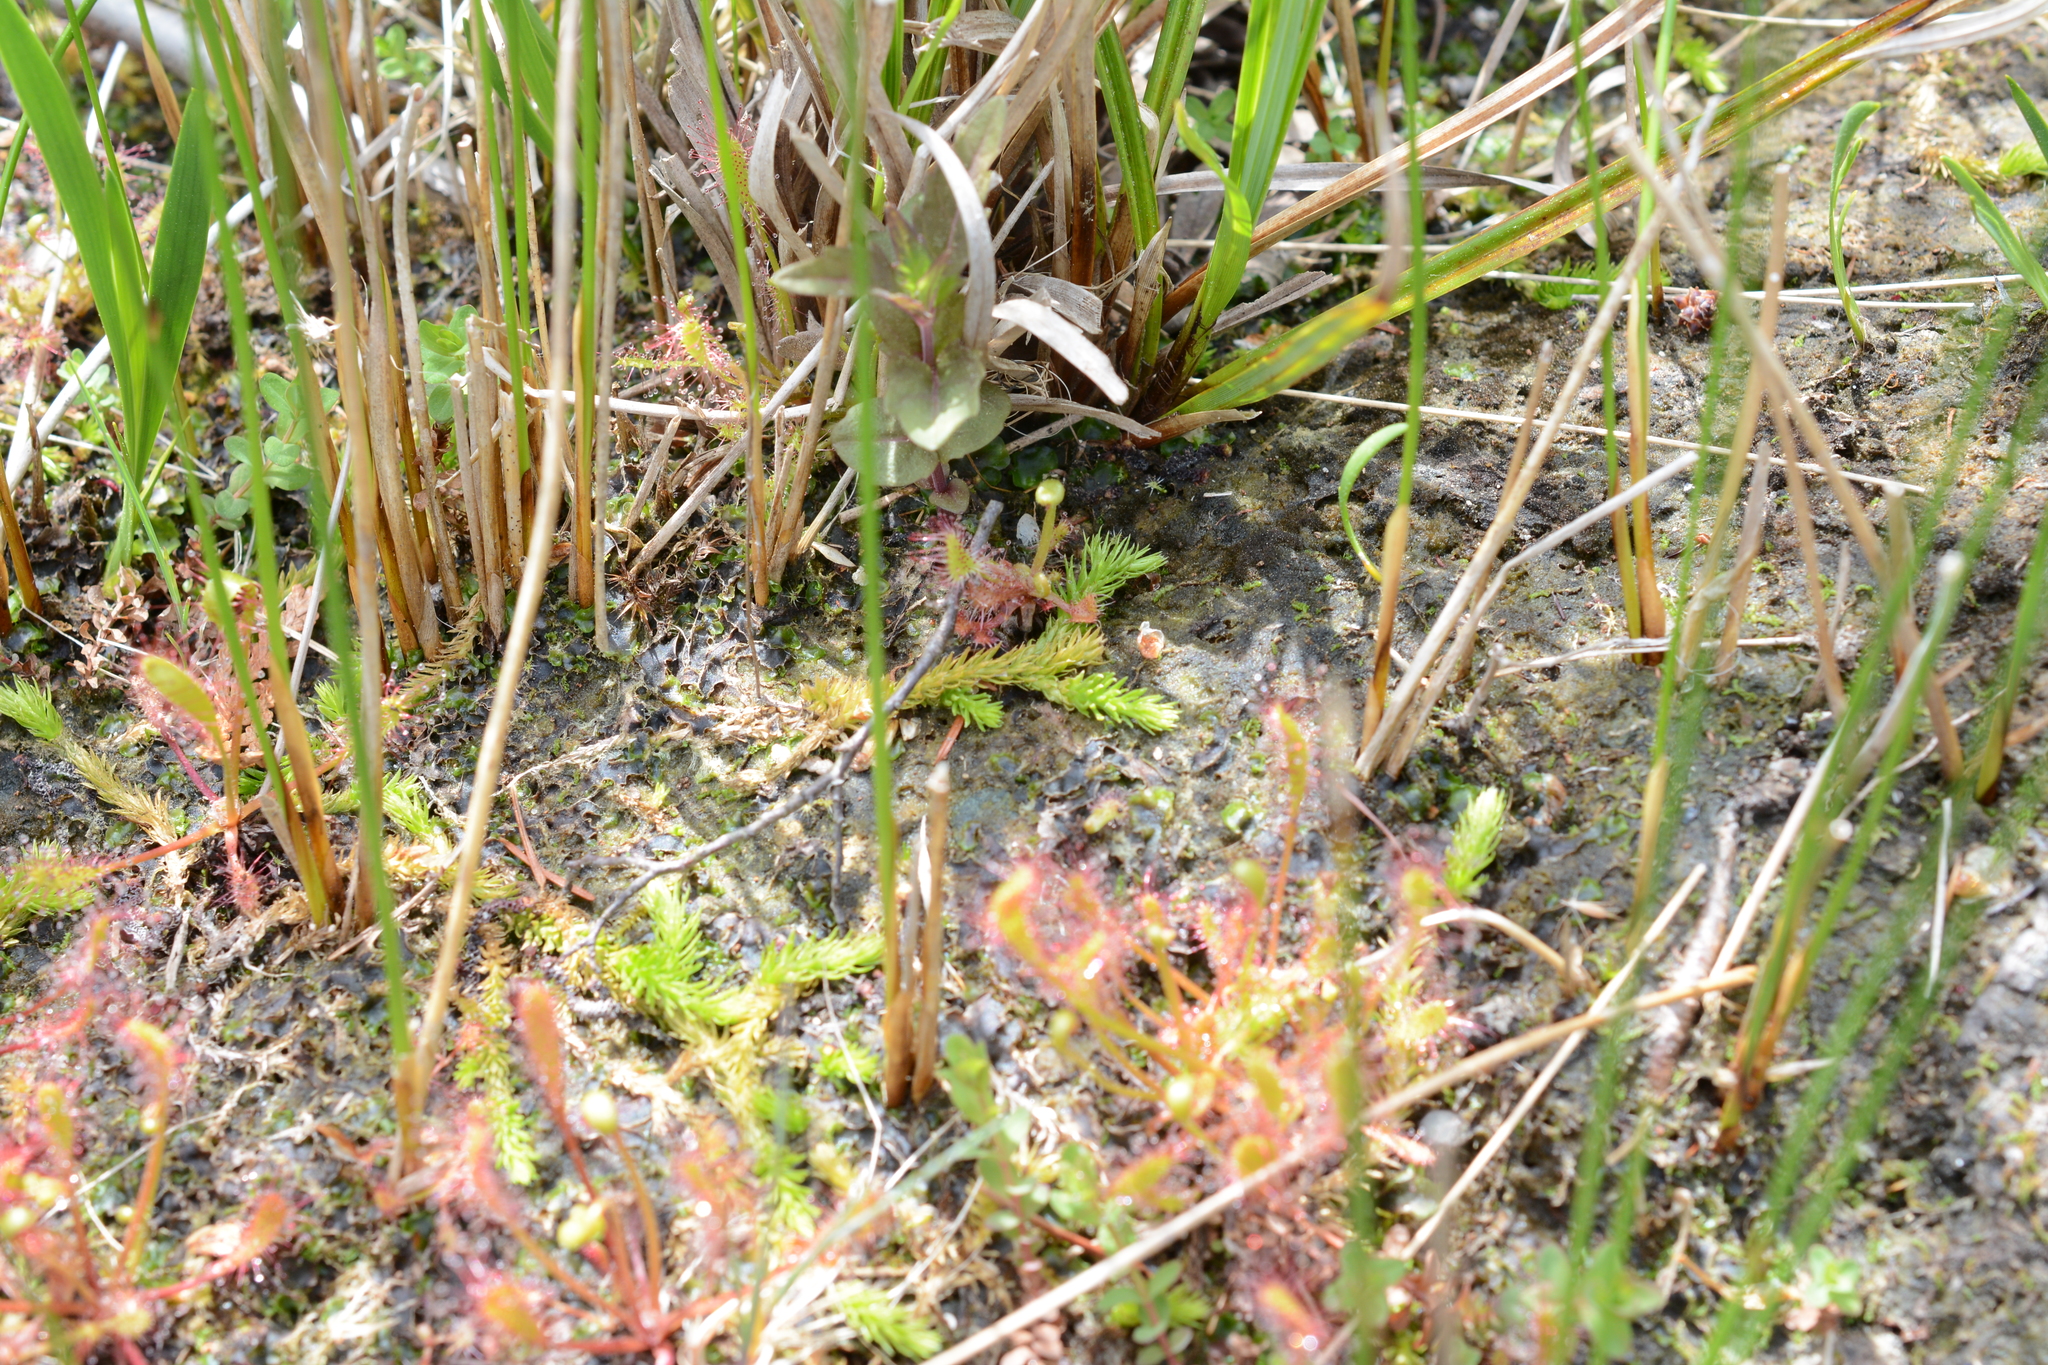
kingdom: Plantae
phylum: Tracheophyta
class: Lycopodiopsida
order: Lycopodiales
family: Lycopodiaceae
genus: Lycopodiella
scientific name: Lycopodiella inundata
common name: Marsh clubmoss
